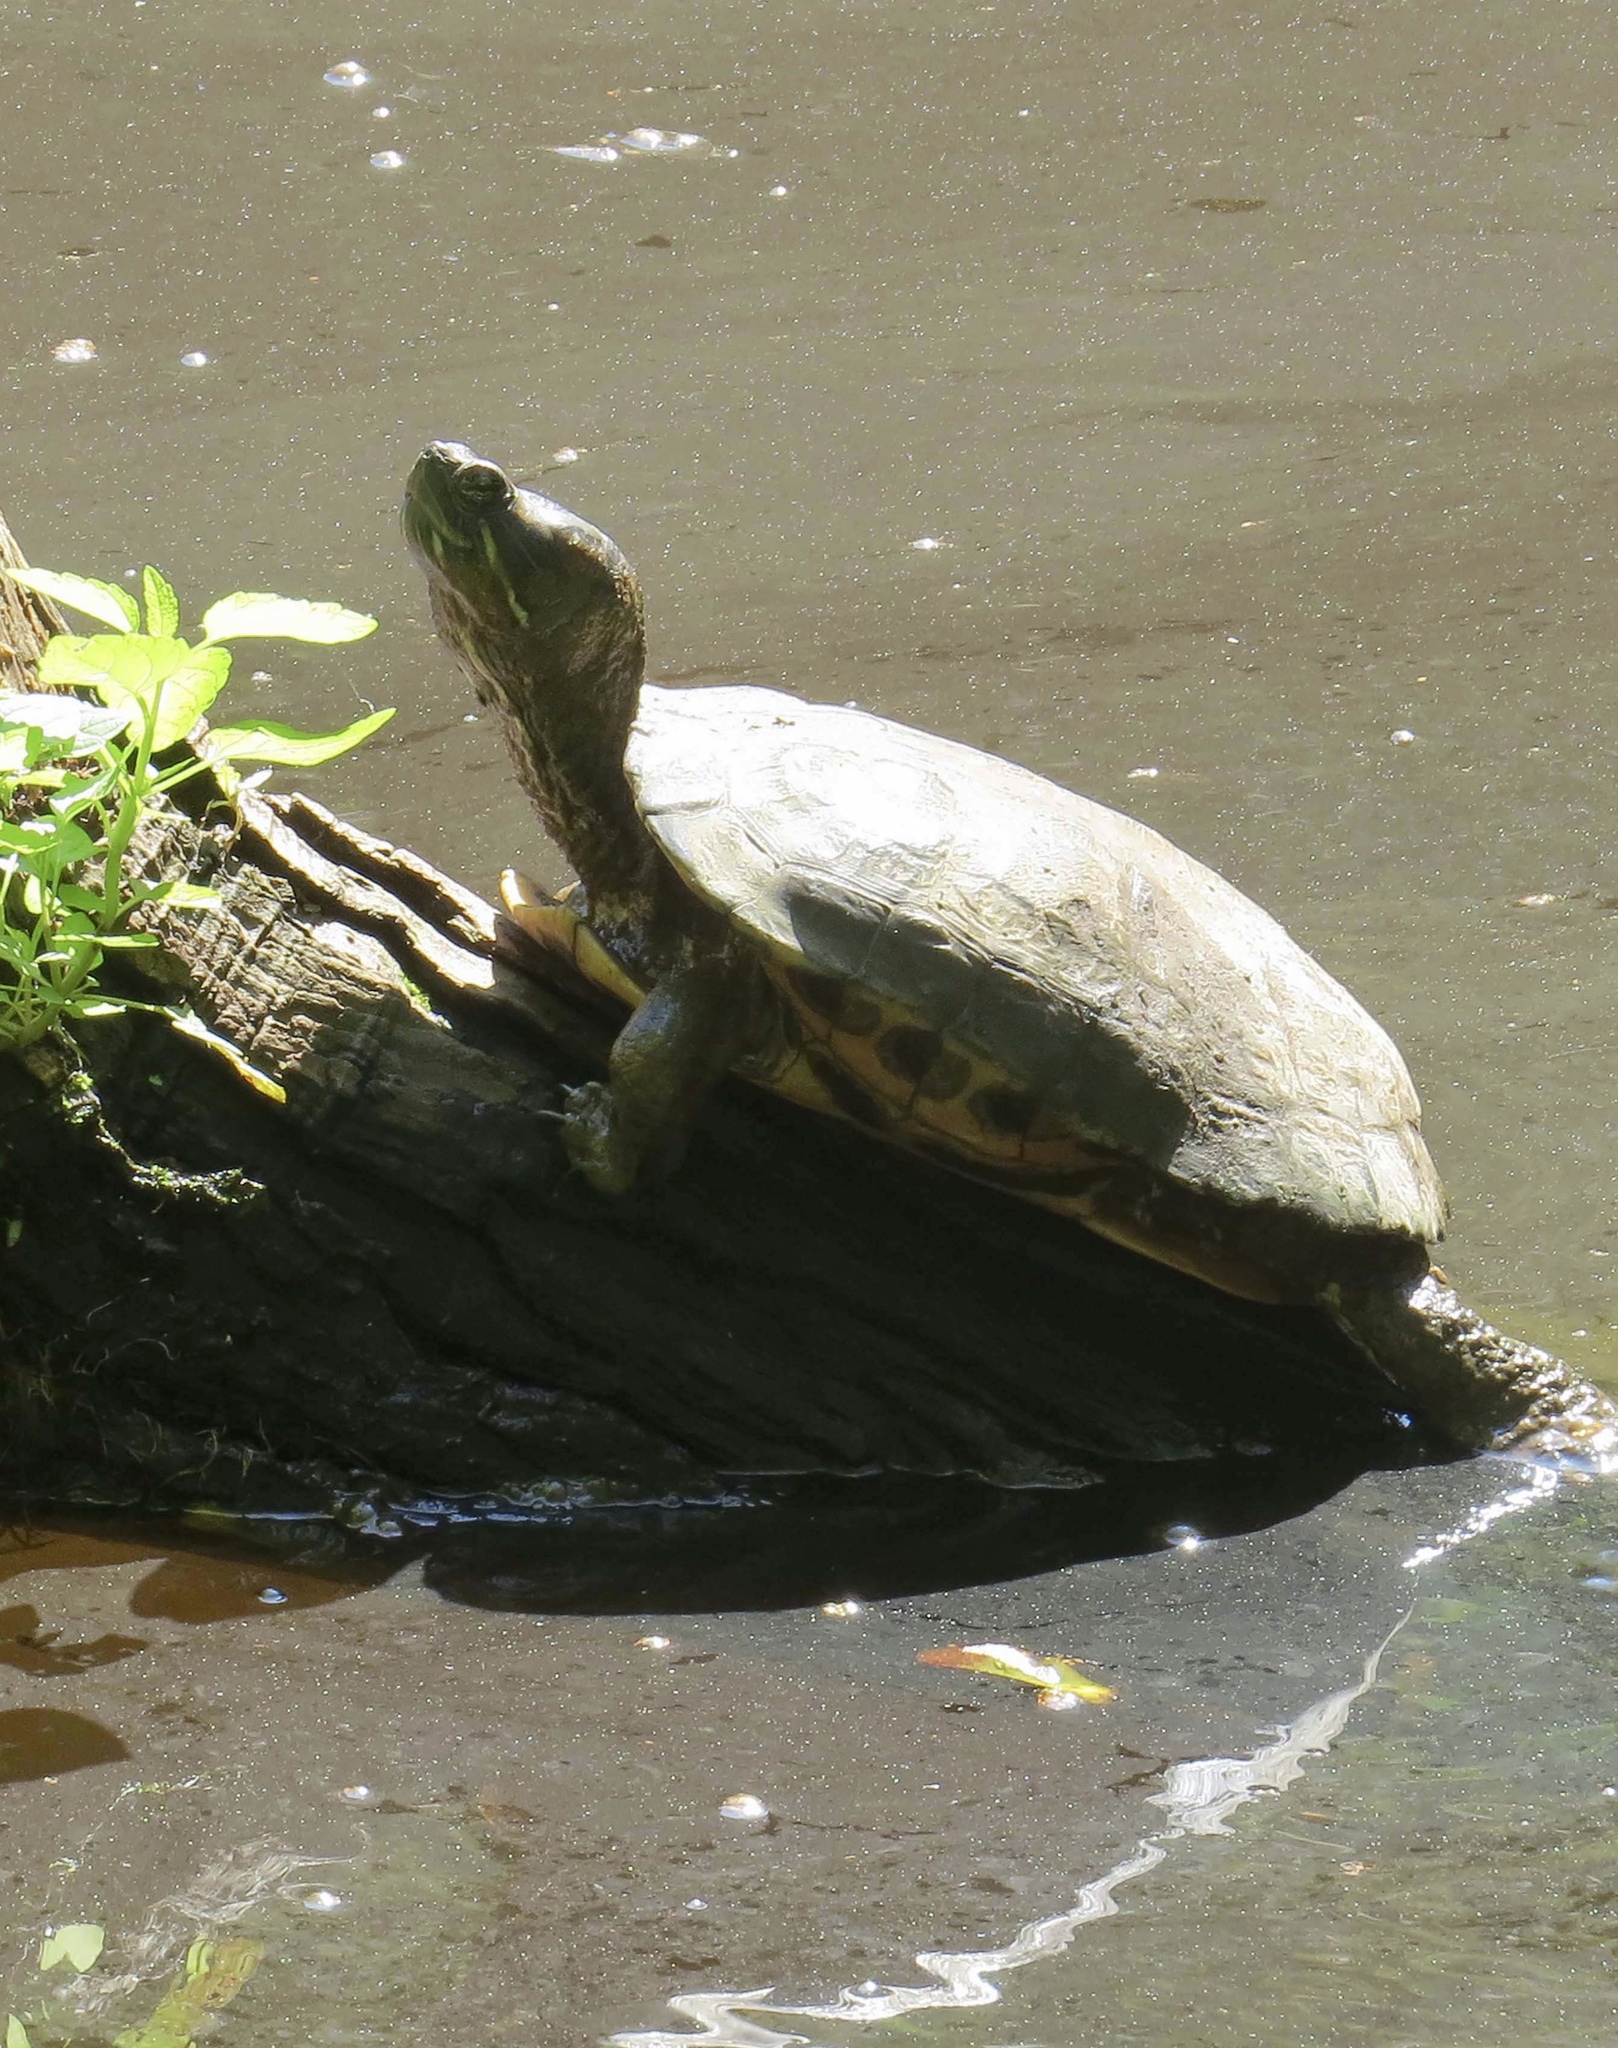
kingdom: Animalia
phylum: Chordata
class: Testudines
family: Emydidae
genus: Trachemys
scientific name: Trachemys scripta
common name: Slider
